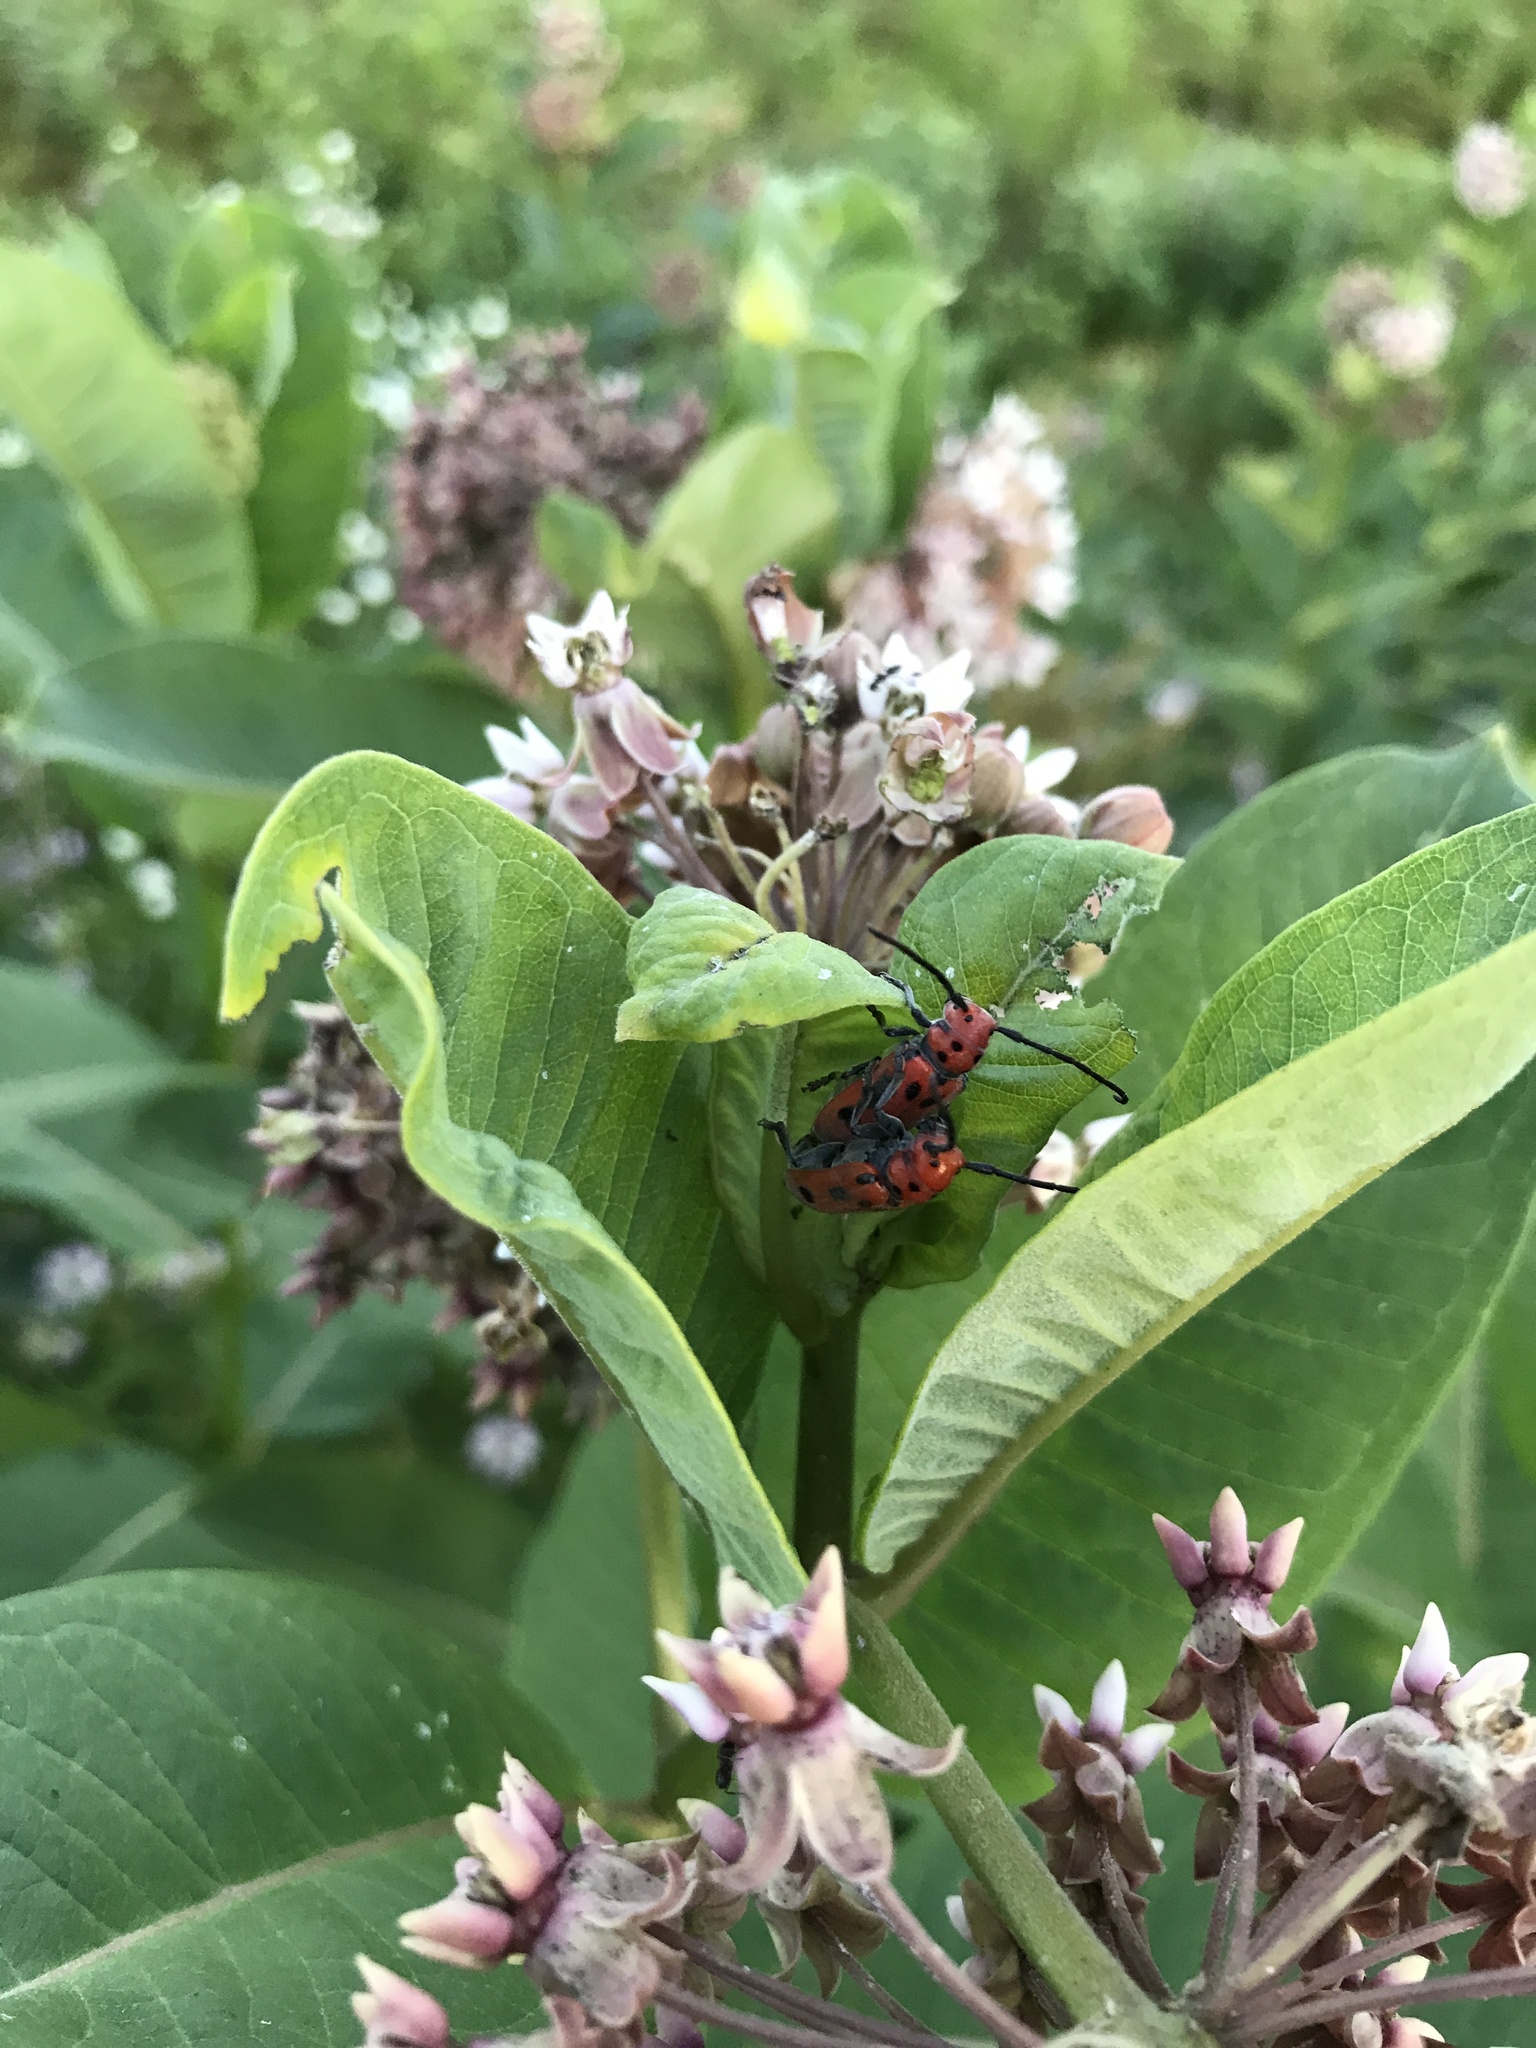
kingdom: Animalia
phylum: Arthropoda
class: Insecta
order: Coleoptera
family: Cerambycidae
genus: Tetraopes
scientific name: Tetraopes tetrophthalmus
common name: Red milkweed beetle
